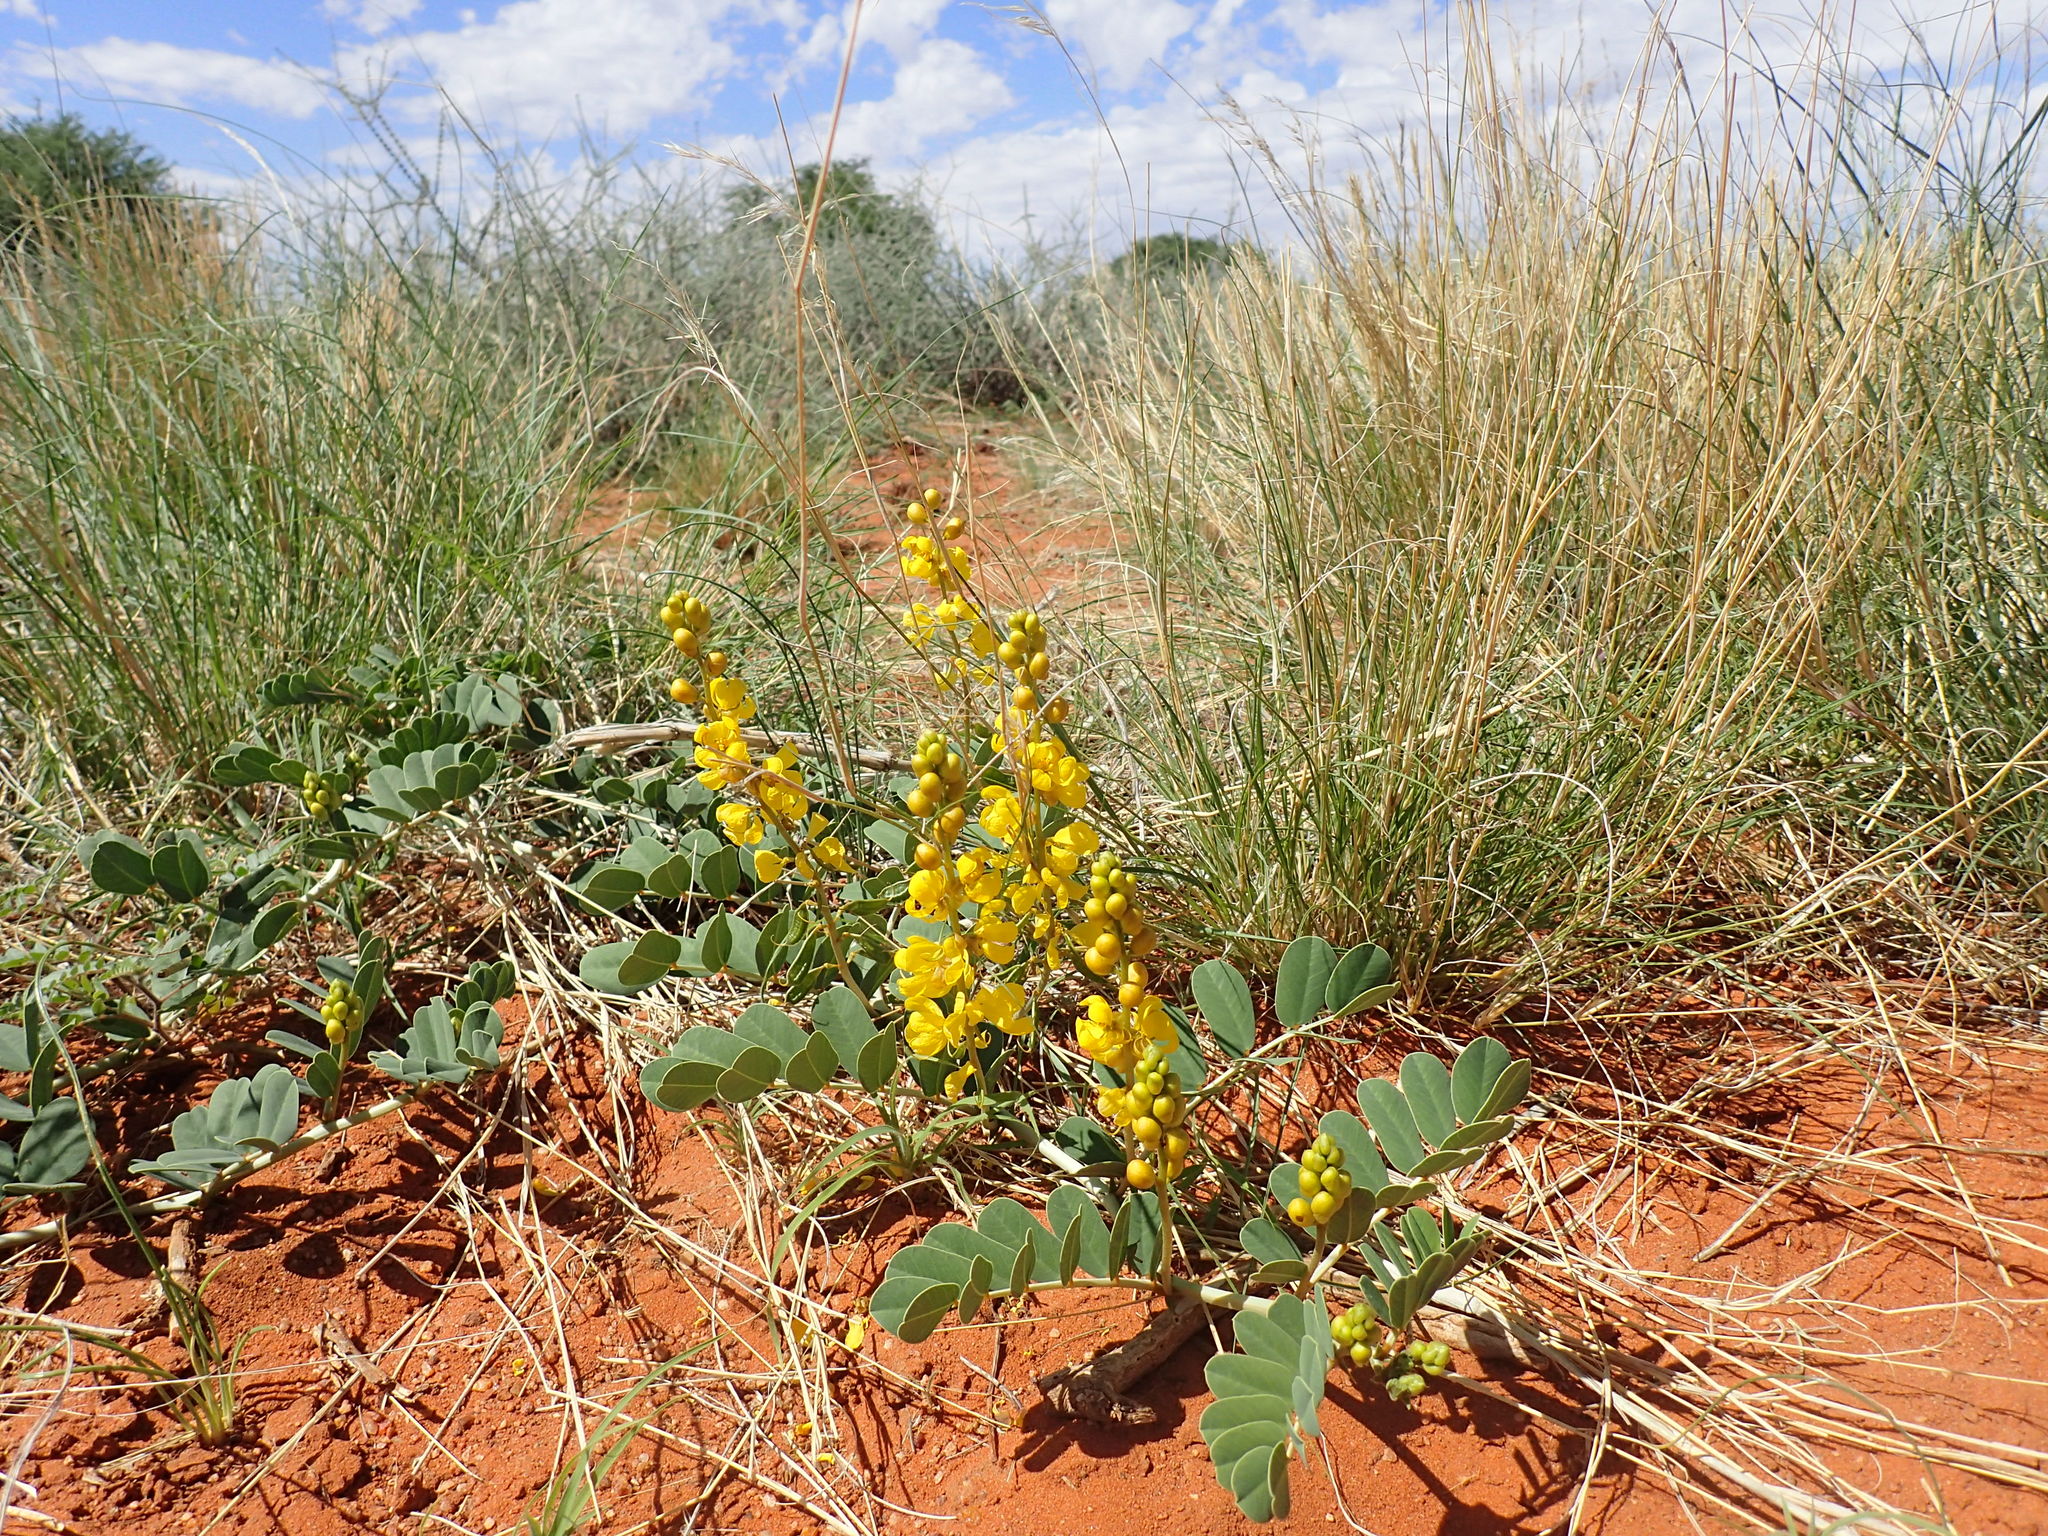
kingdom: Plantae
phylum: Tracheophyta
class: Magnoliopsida
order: Fabales
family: Fabaceae
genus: Senna
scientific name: Senna italica
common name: Port royal senna
